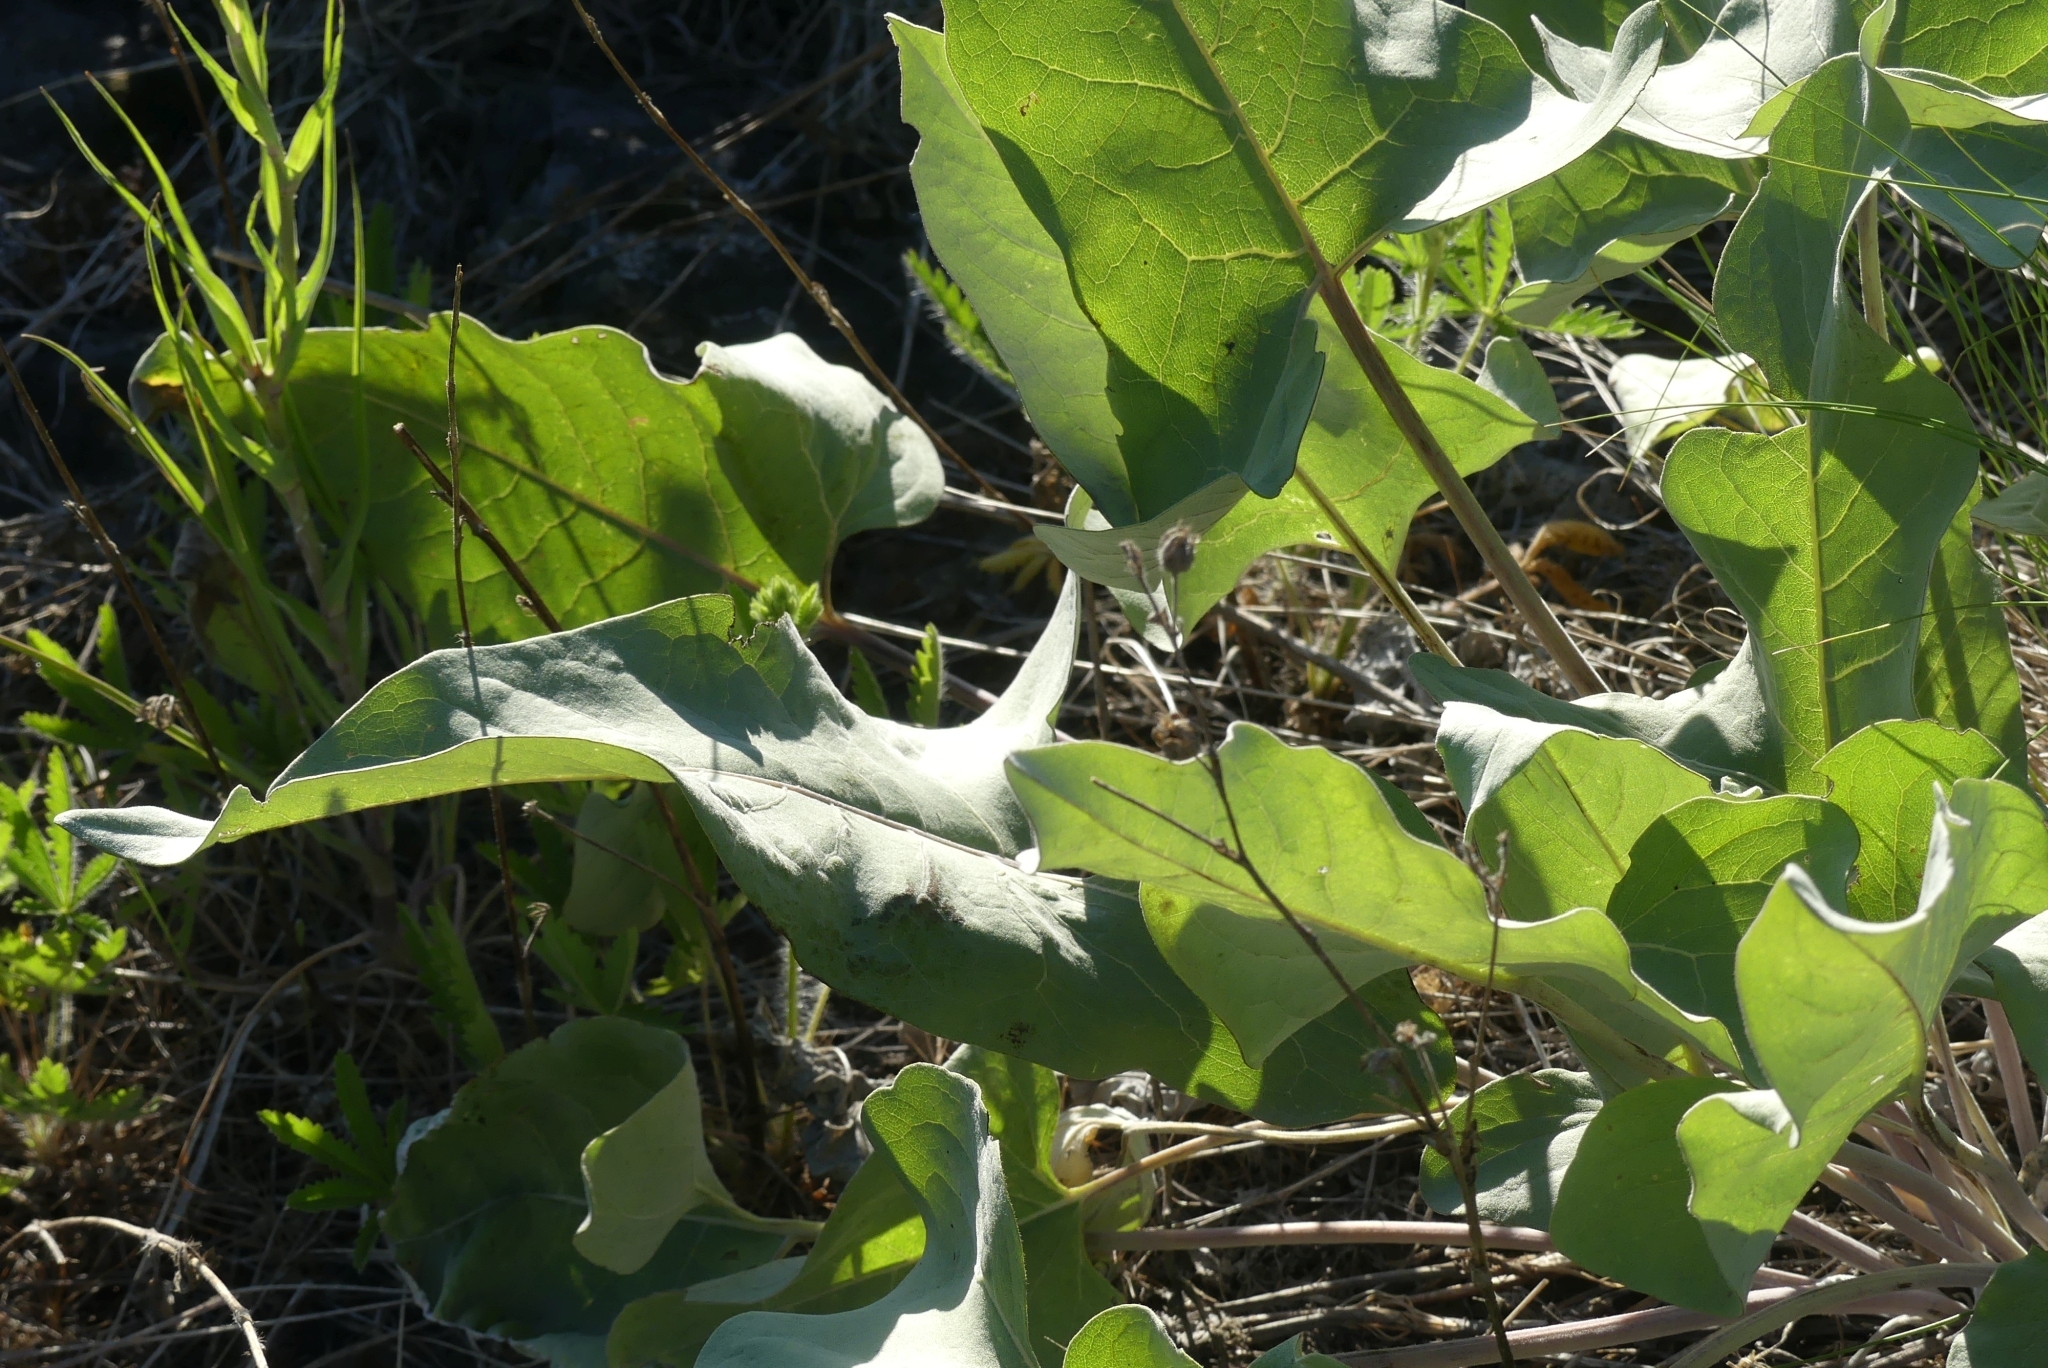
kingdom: Plantae
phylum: Tracheophyta
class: Magnoliopsida
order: Asterales
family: Asteraceae
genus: Wyethia
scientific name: Wyethia sagittata
